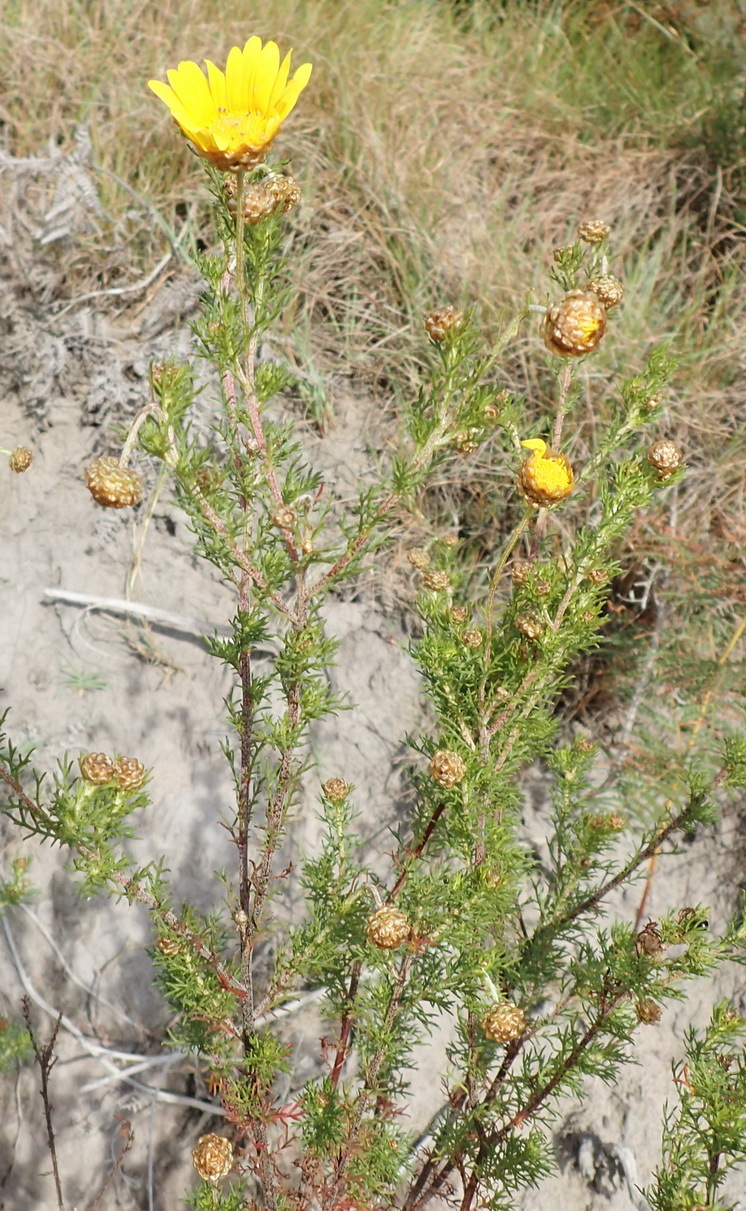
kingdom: Plantae
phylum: Tracheophyta
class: Magnoliopsida
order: Asterales
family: Asteraceae
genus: Ursinia
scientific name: Ursinia scariosa
